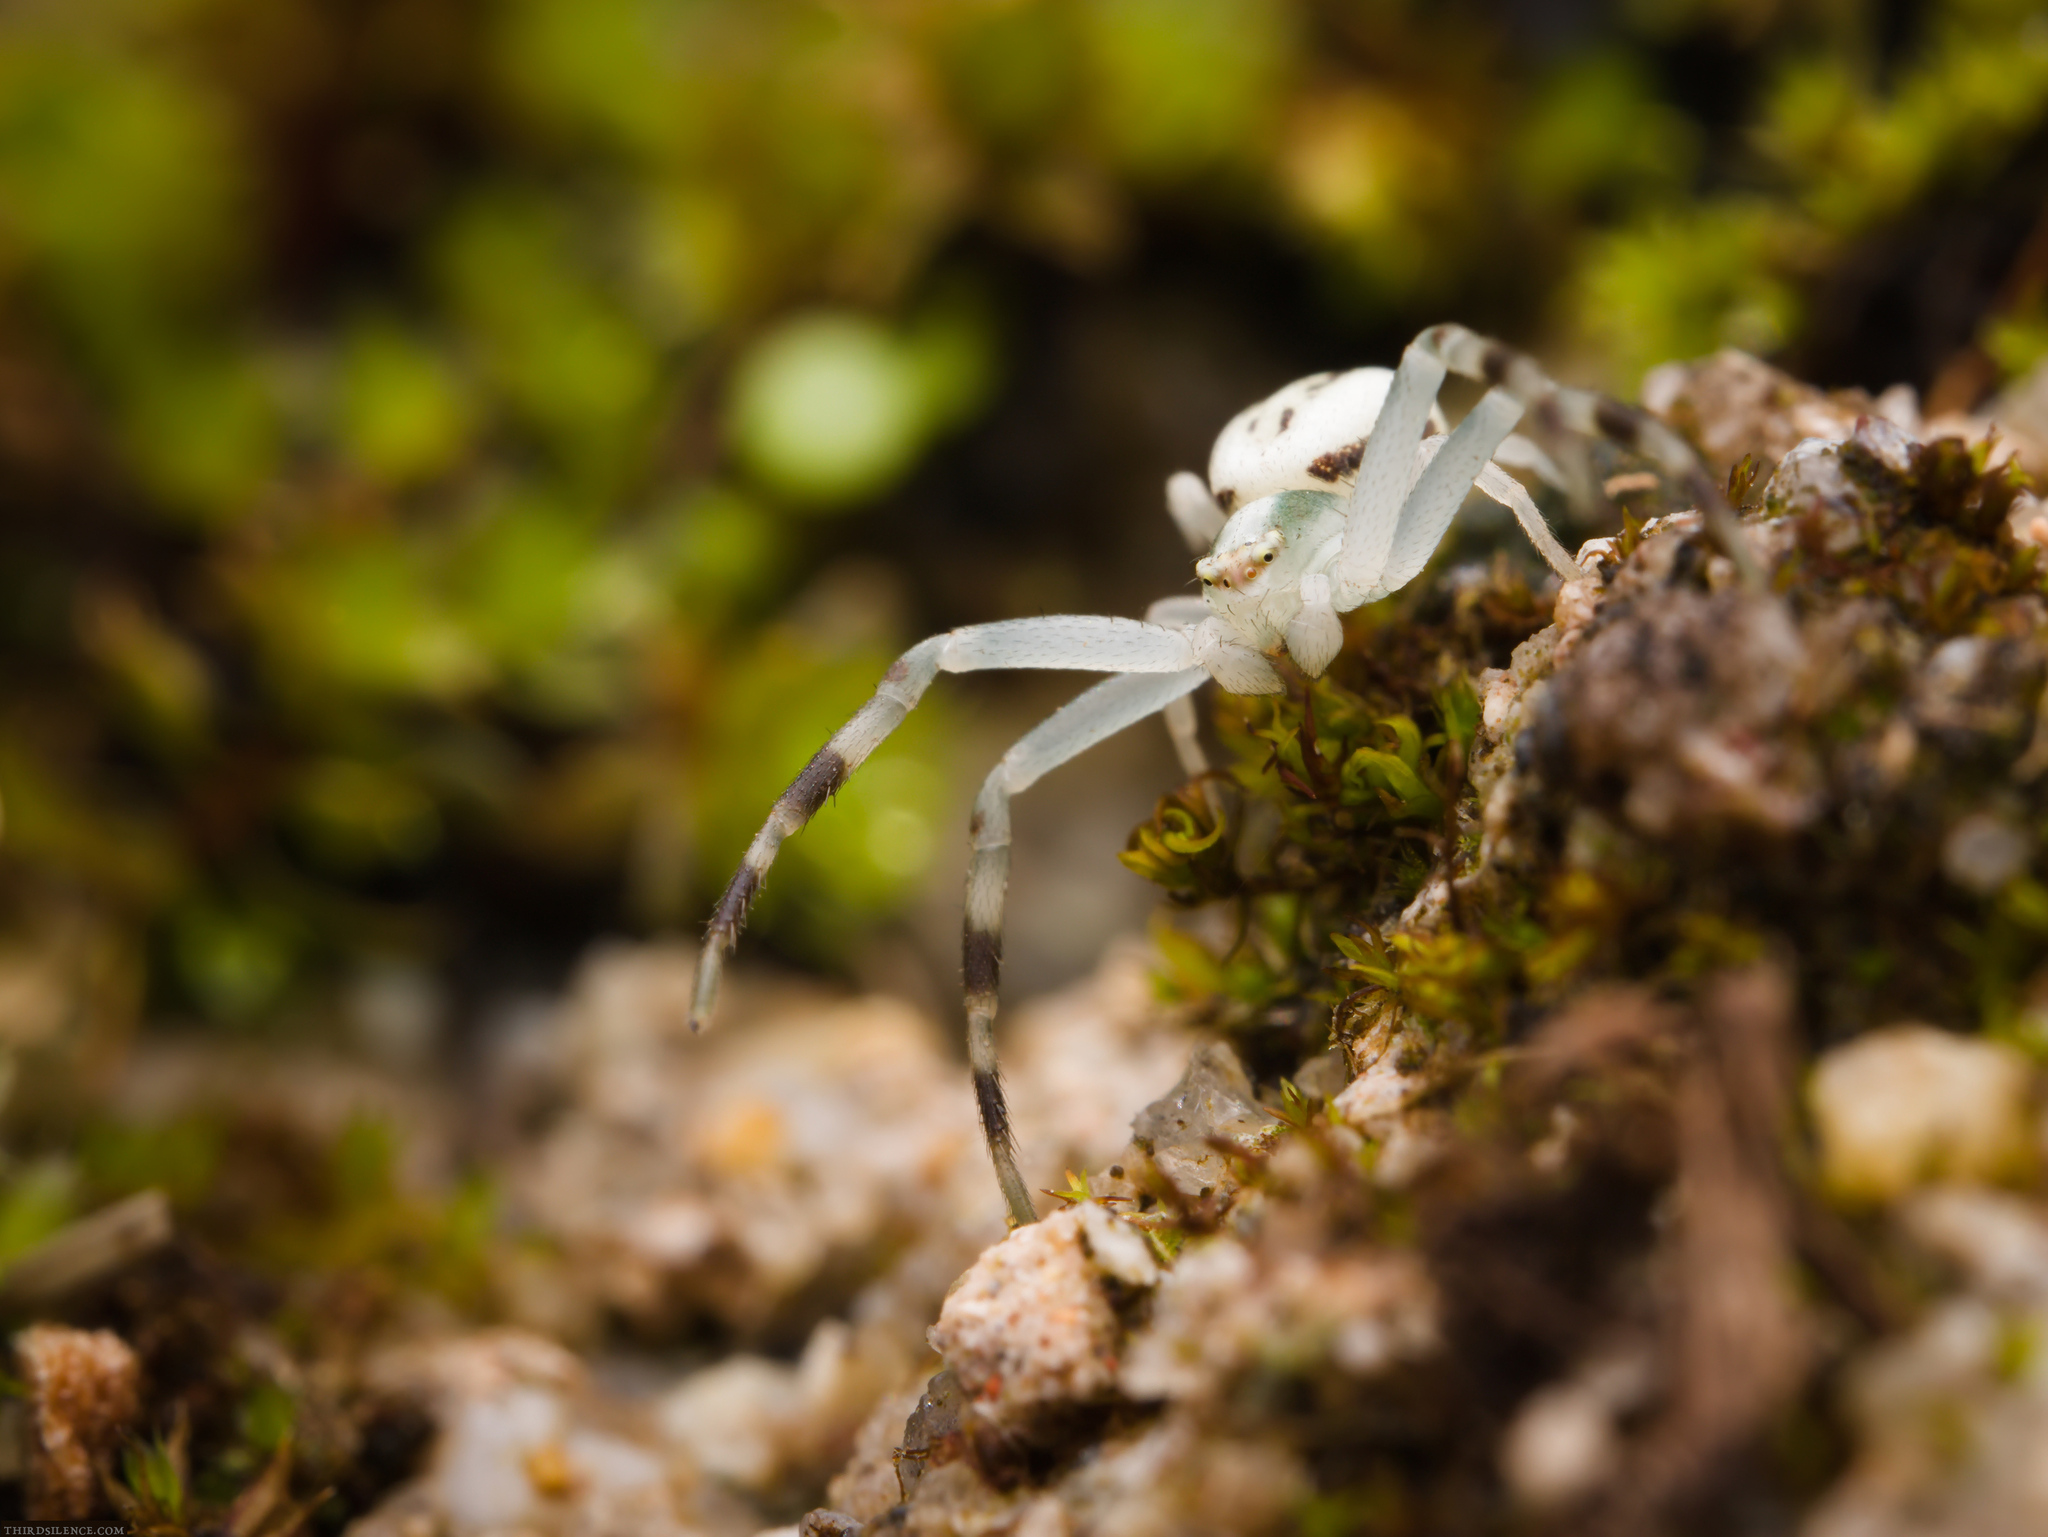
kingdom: Animalia
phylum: Arthropoda
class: Arachnida
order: Araneae
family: Thomisidae
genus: Misumena
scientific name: Misumena vatia
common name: Goldenrod crab spider
